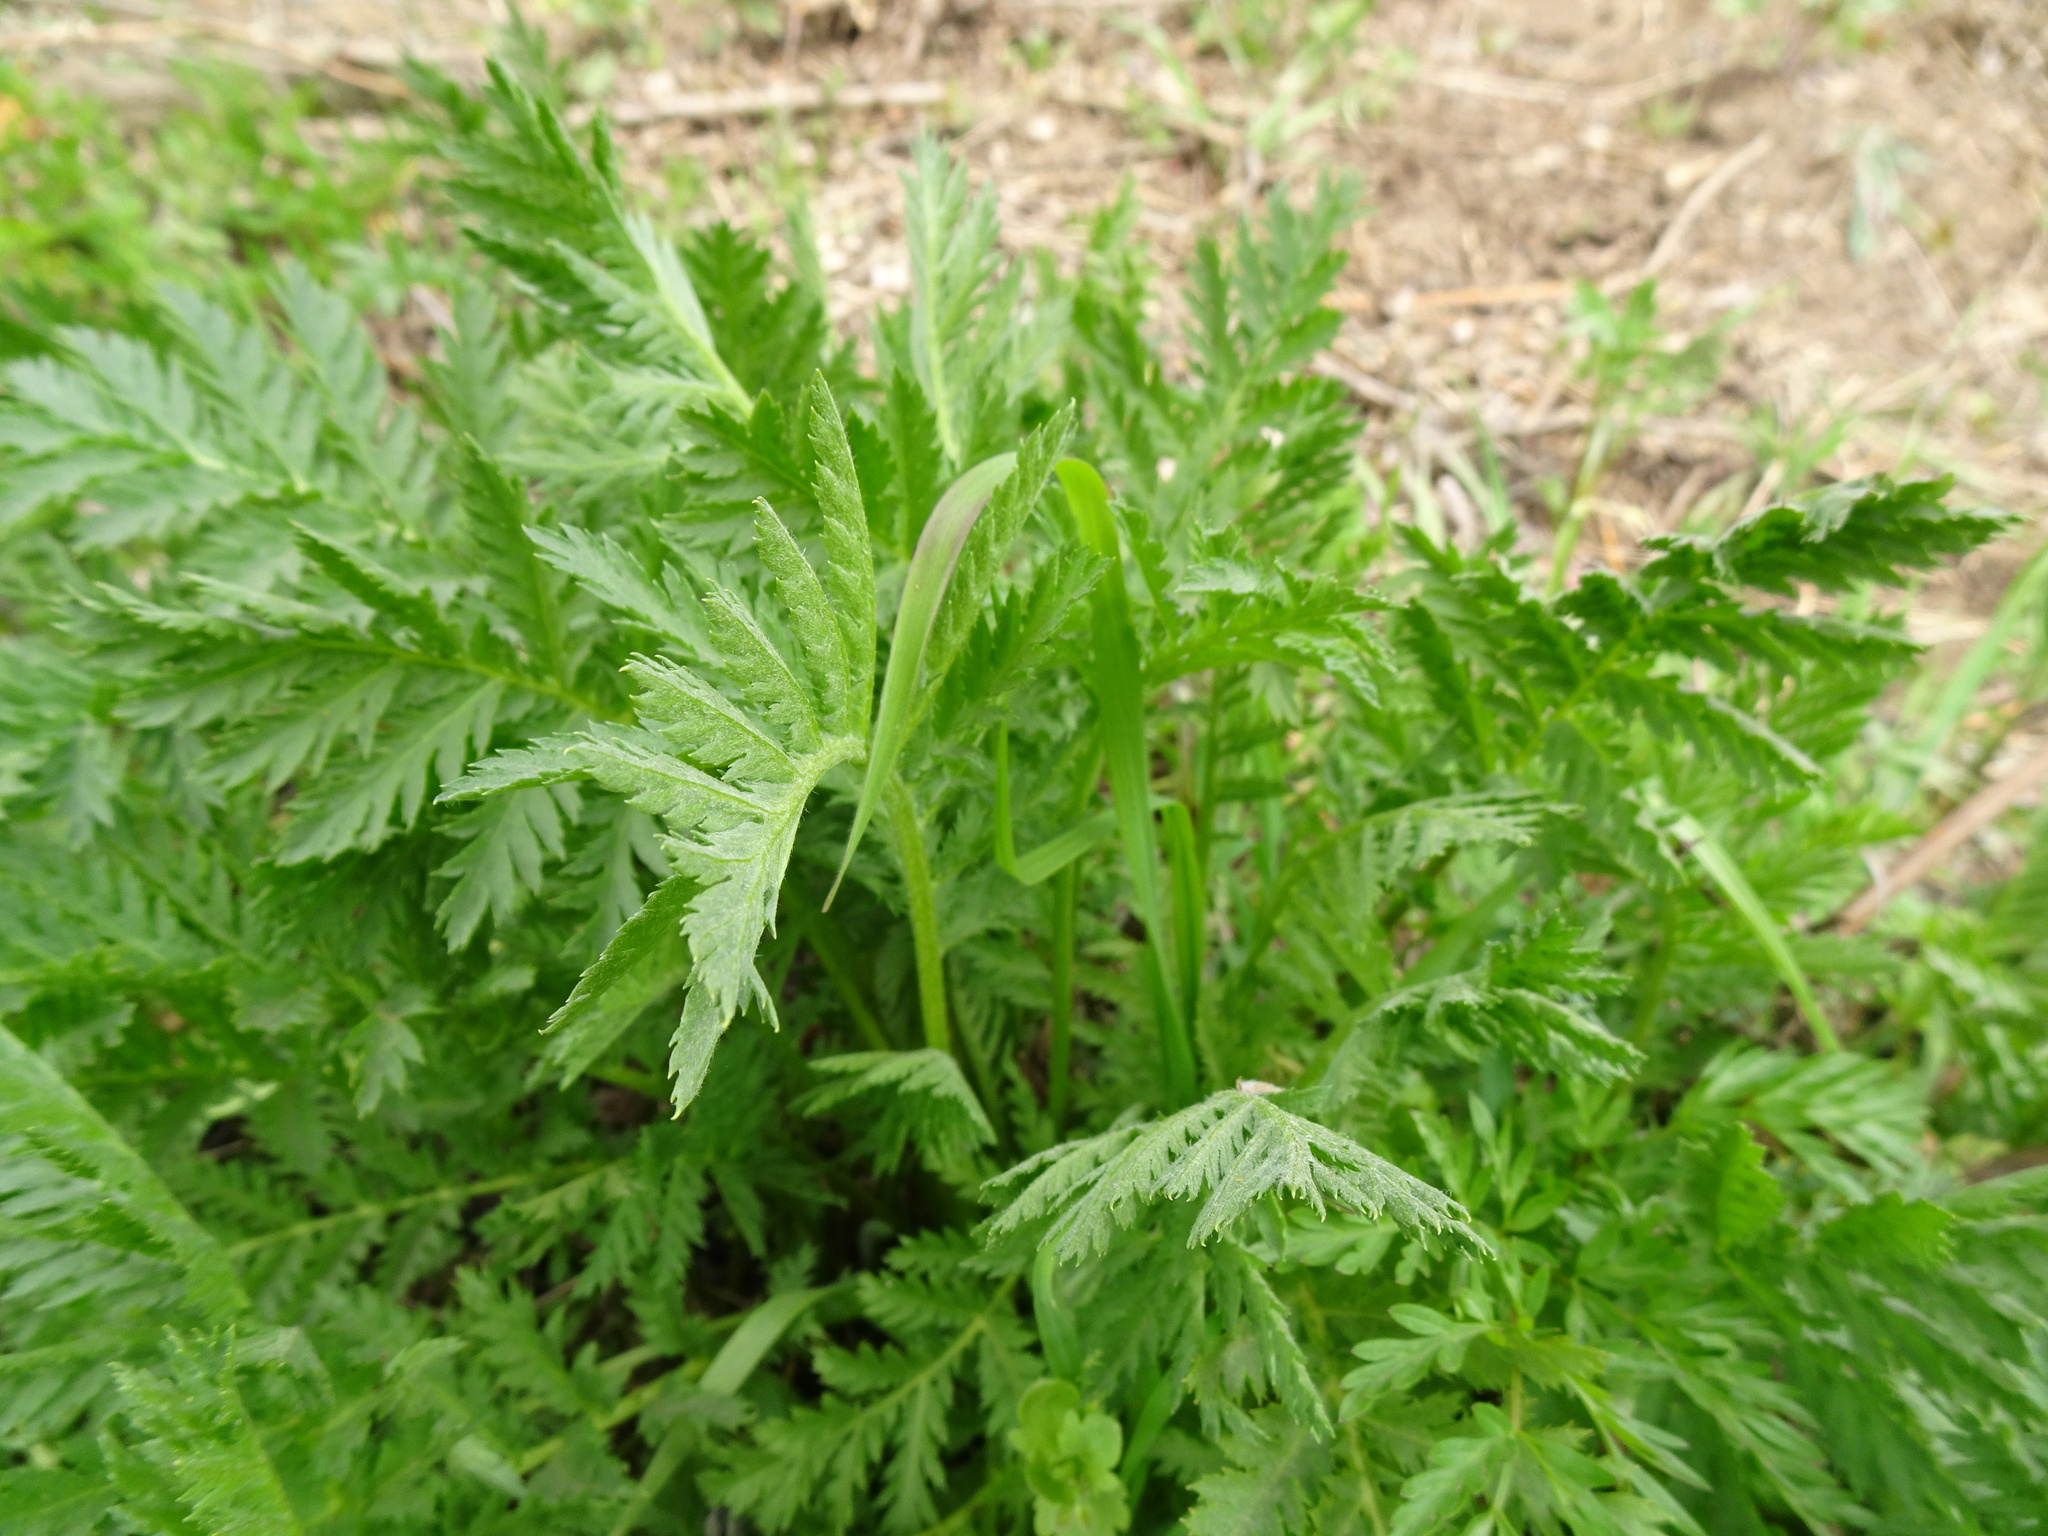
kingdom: Plantae
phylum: Tracheophyta
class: Magnoliopsida
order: Asterales
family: Asteraceae
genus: Tanacetum
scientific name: Tanacetum vulgare
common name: Common tansy
